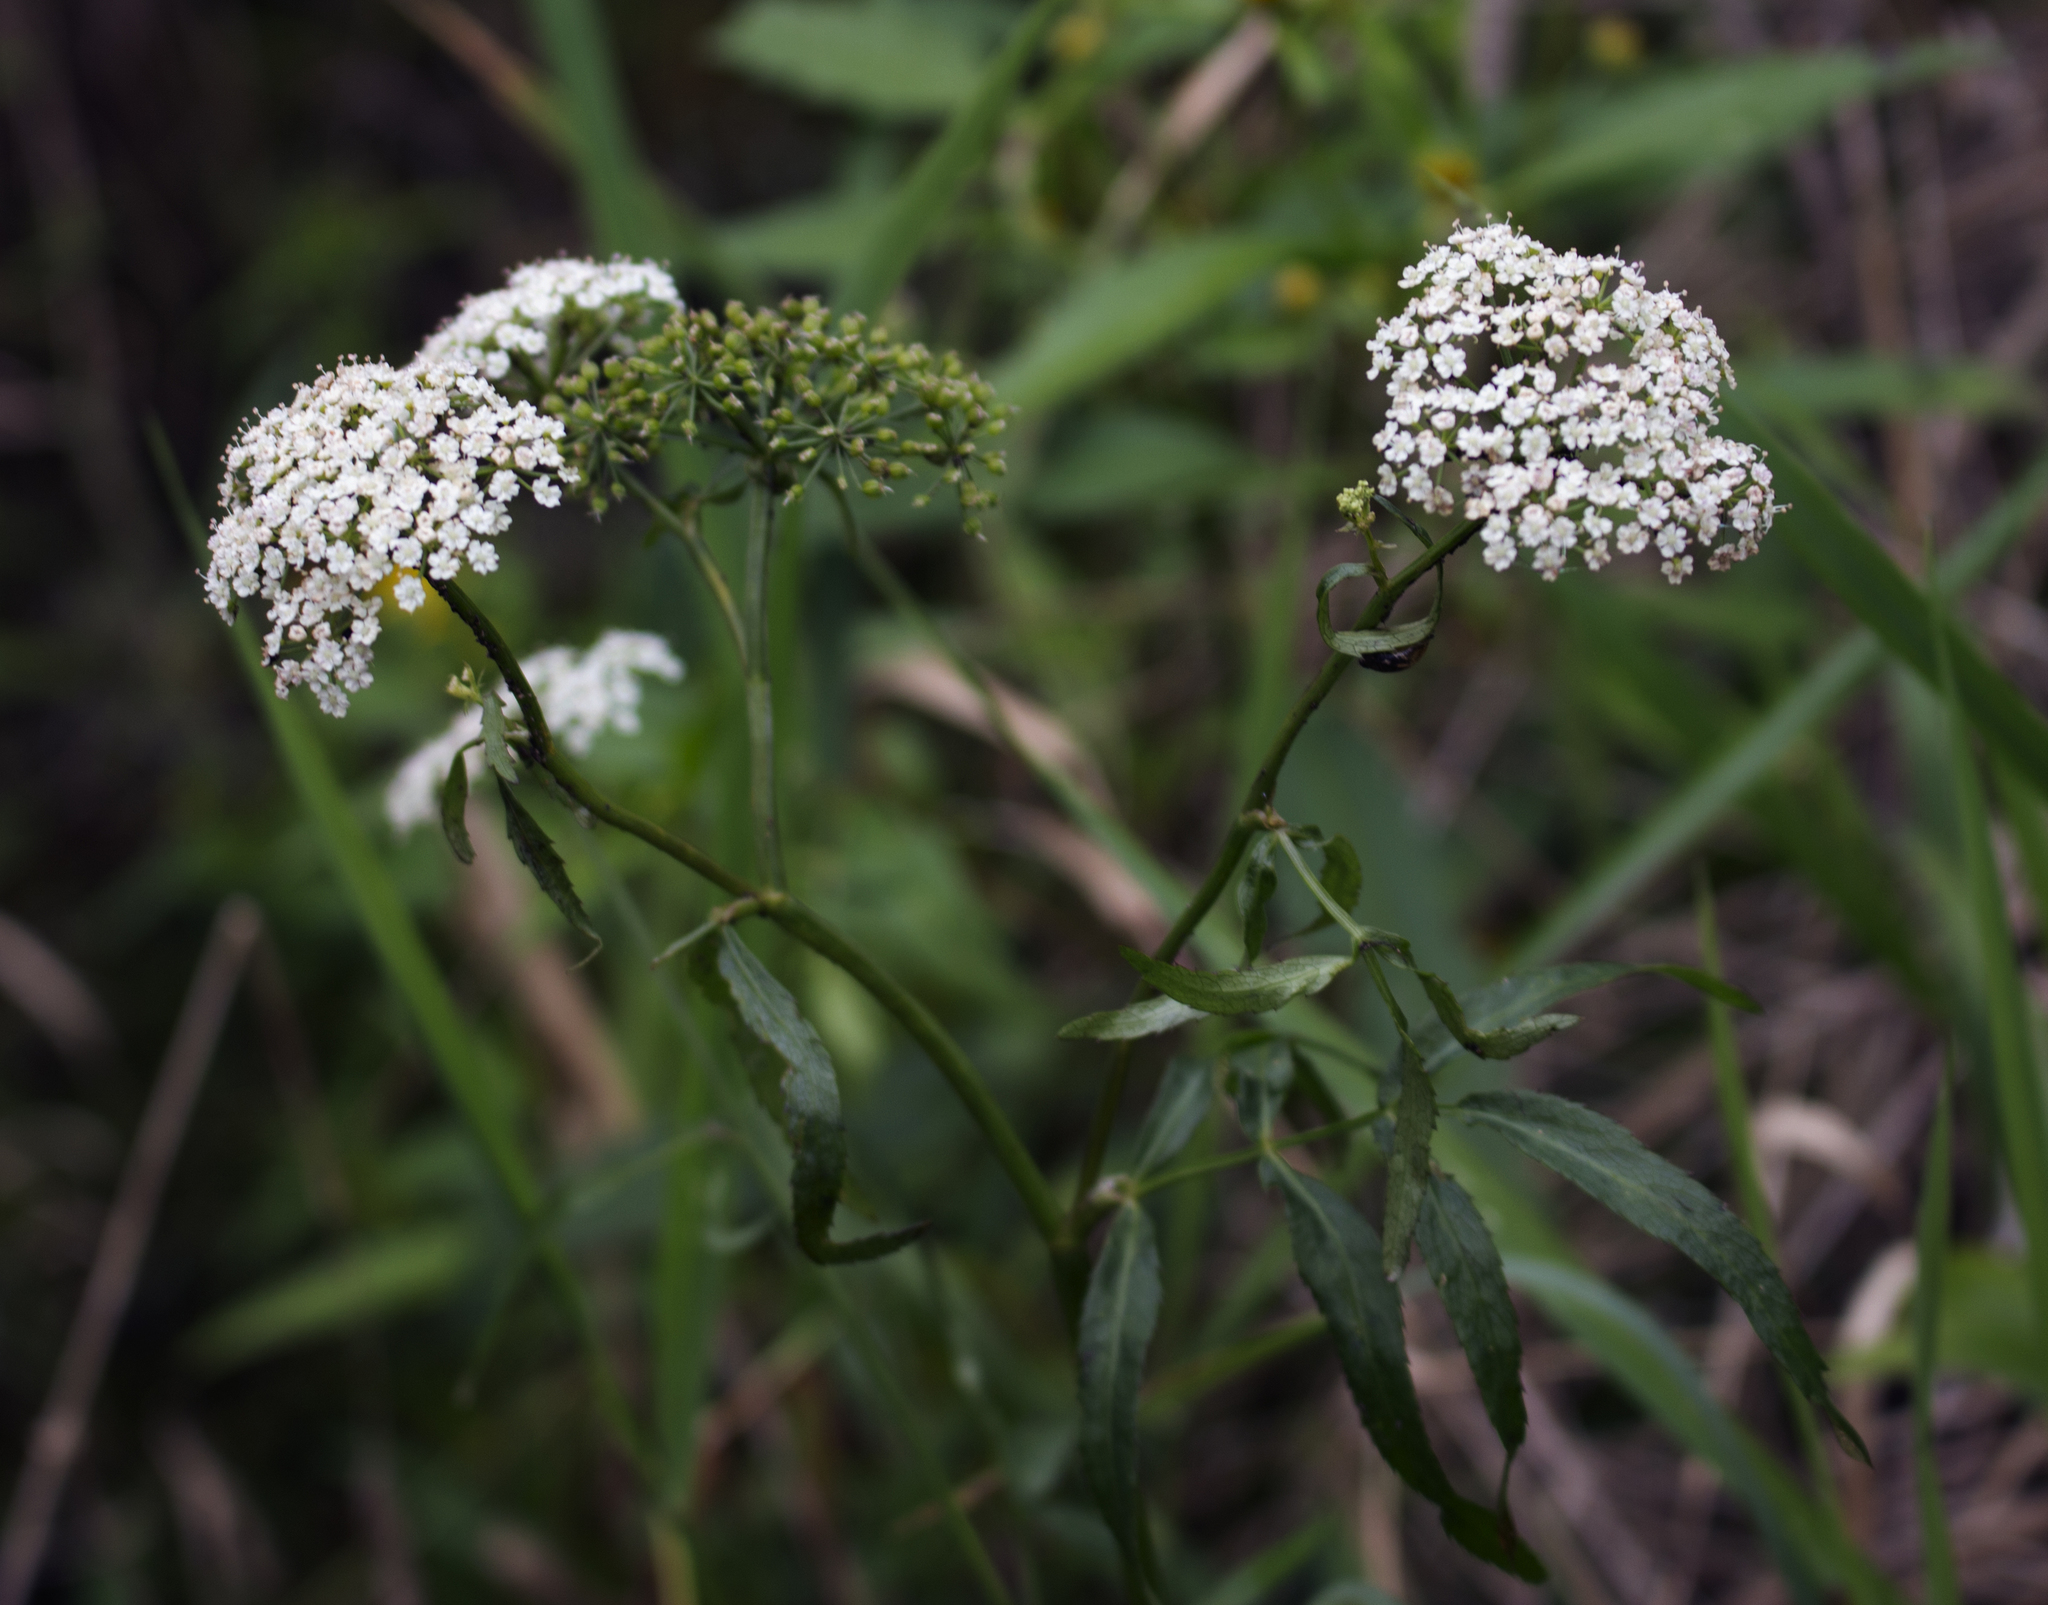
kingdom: Plantae
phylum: Tracheophyta
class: Magnoliopsida
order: Apiales
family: Apiaceae
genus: Sium
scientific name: Sium suave
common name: Hemlock water-parsnip
